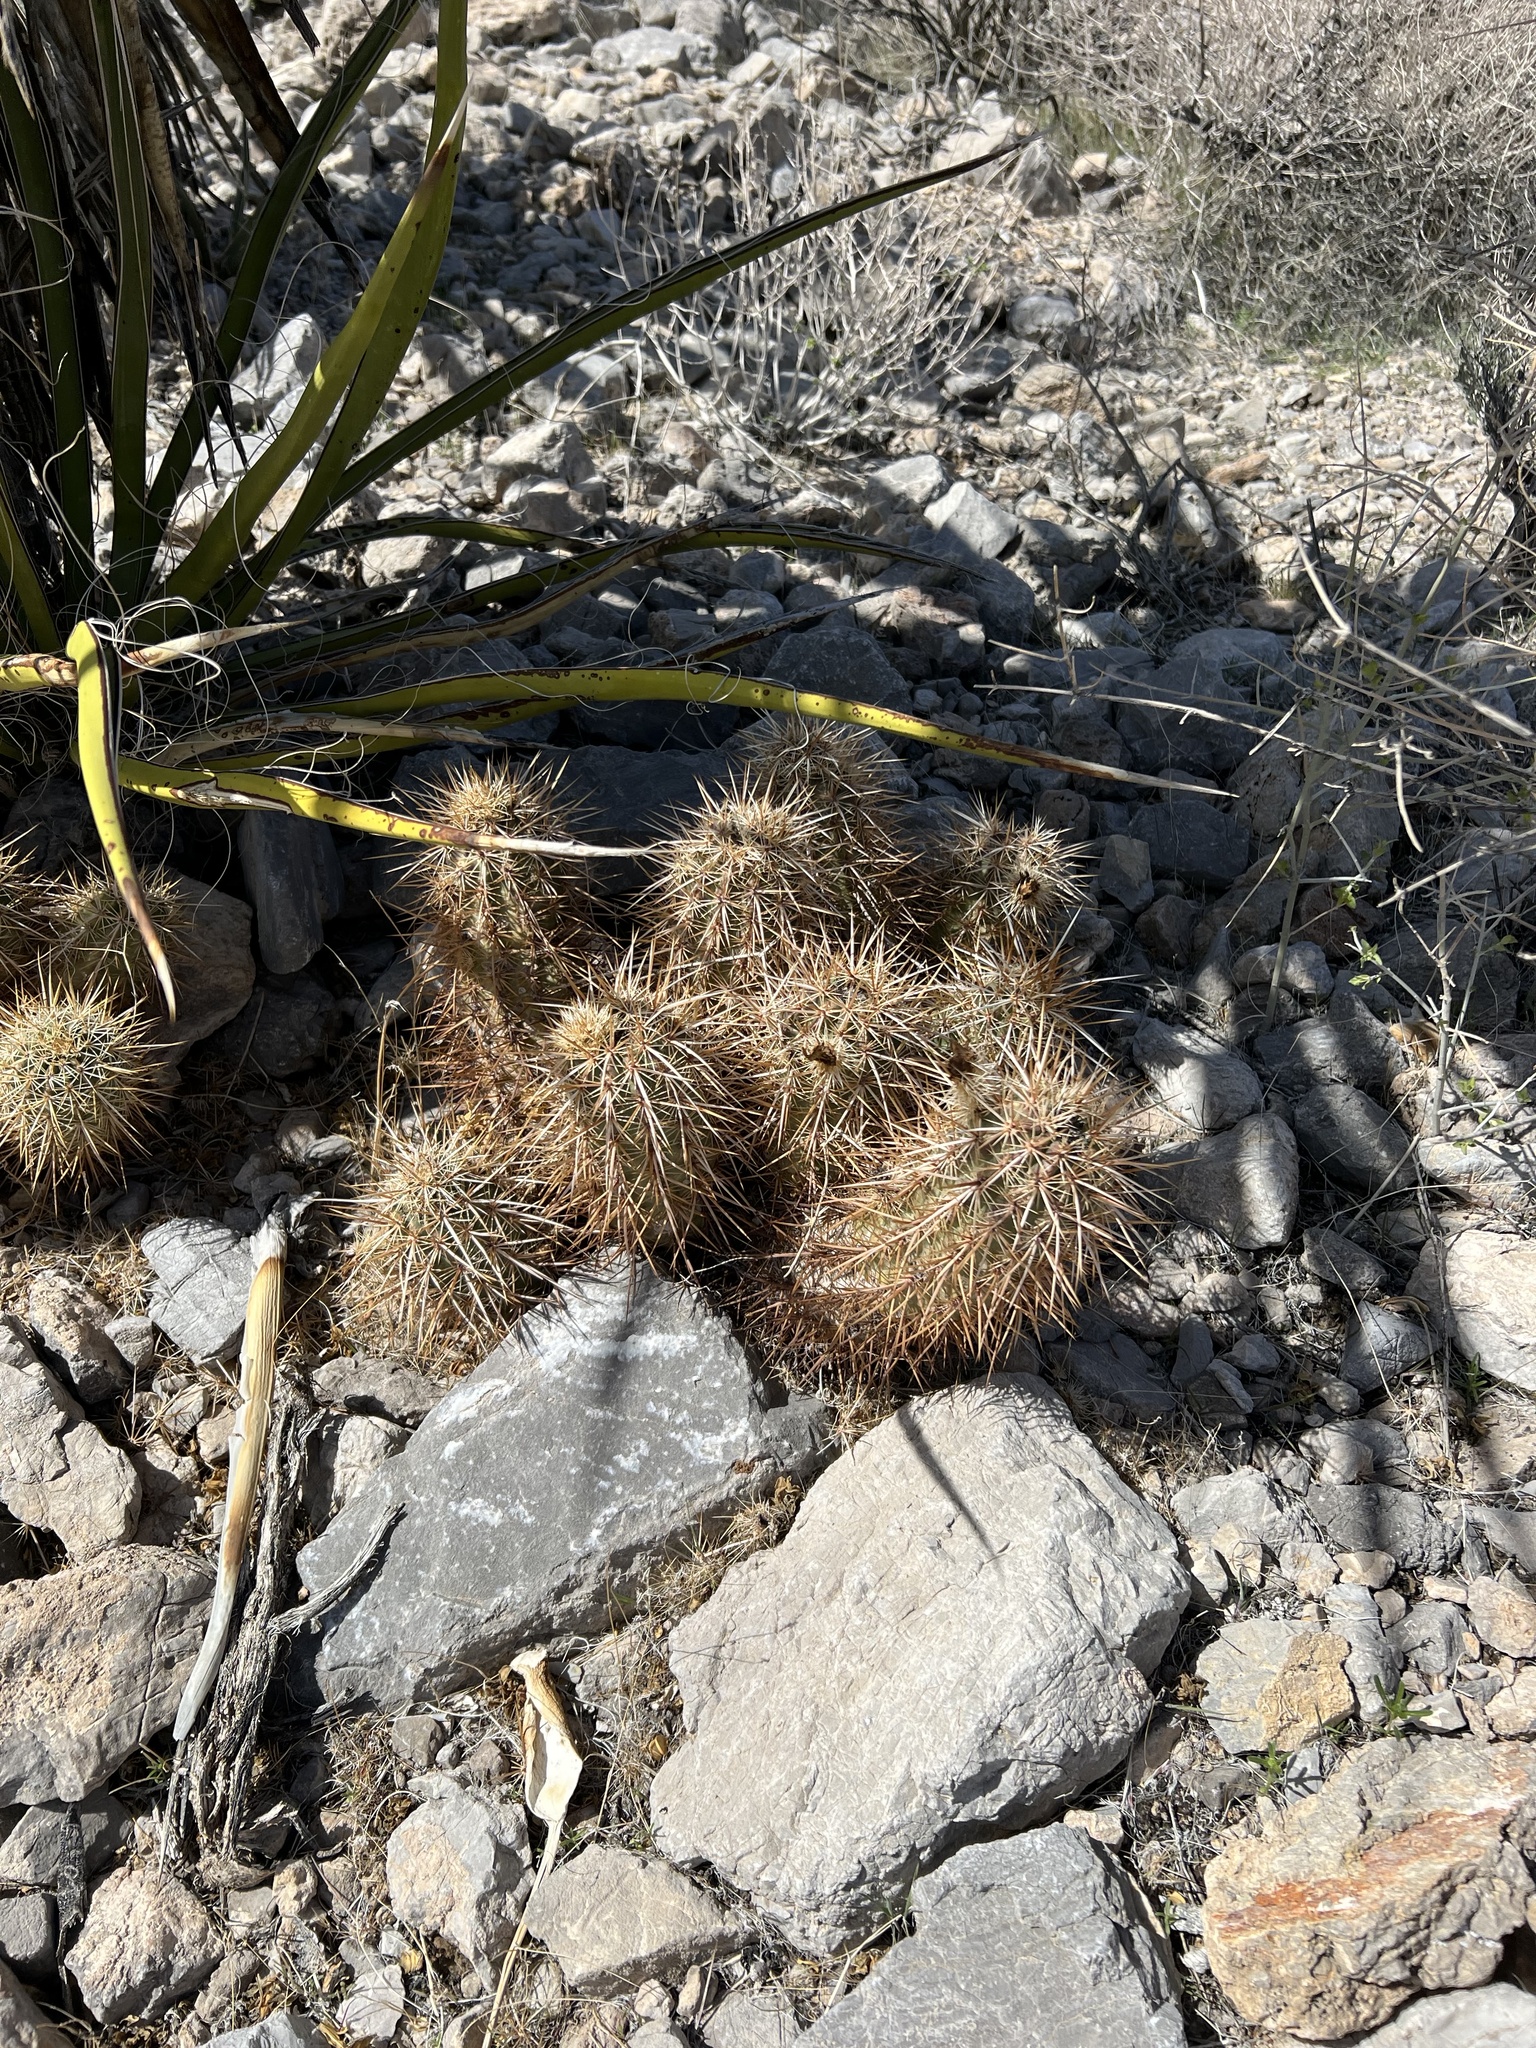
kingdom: Plantae
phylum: Tracheophyta
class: Magnoliopsida
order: Caryophyllales
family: Cactaceae
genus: Echinocereus
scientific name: Echinocereus engelmannii
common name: Engelmann's hedgehog cactus
